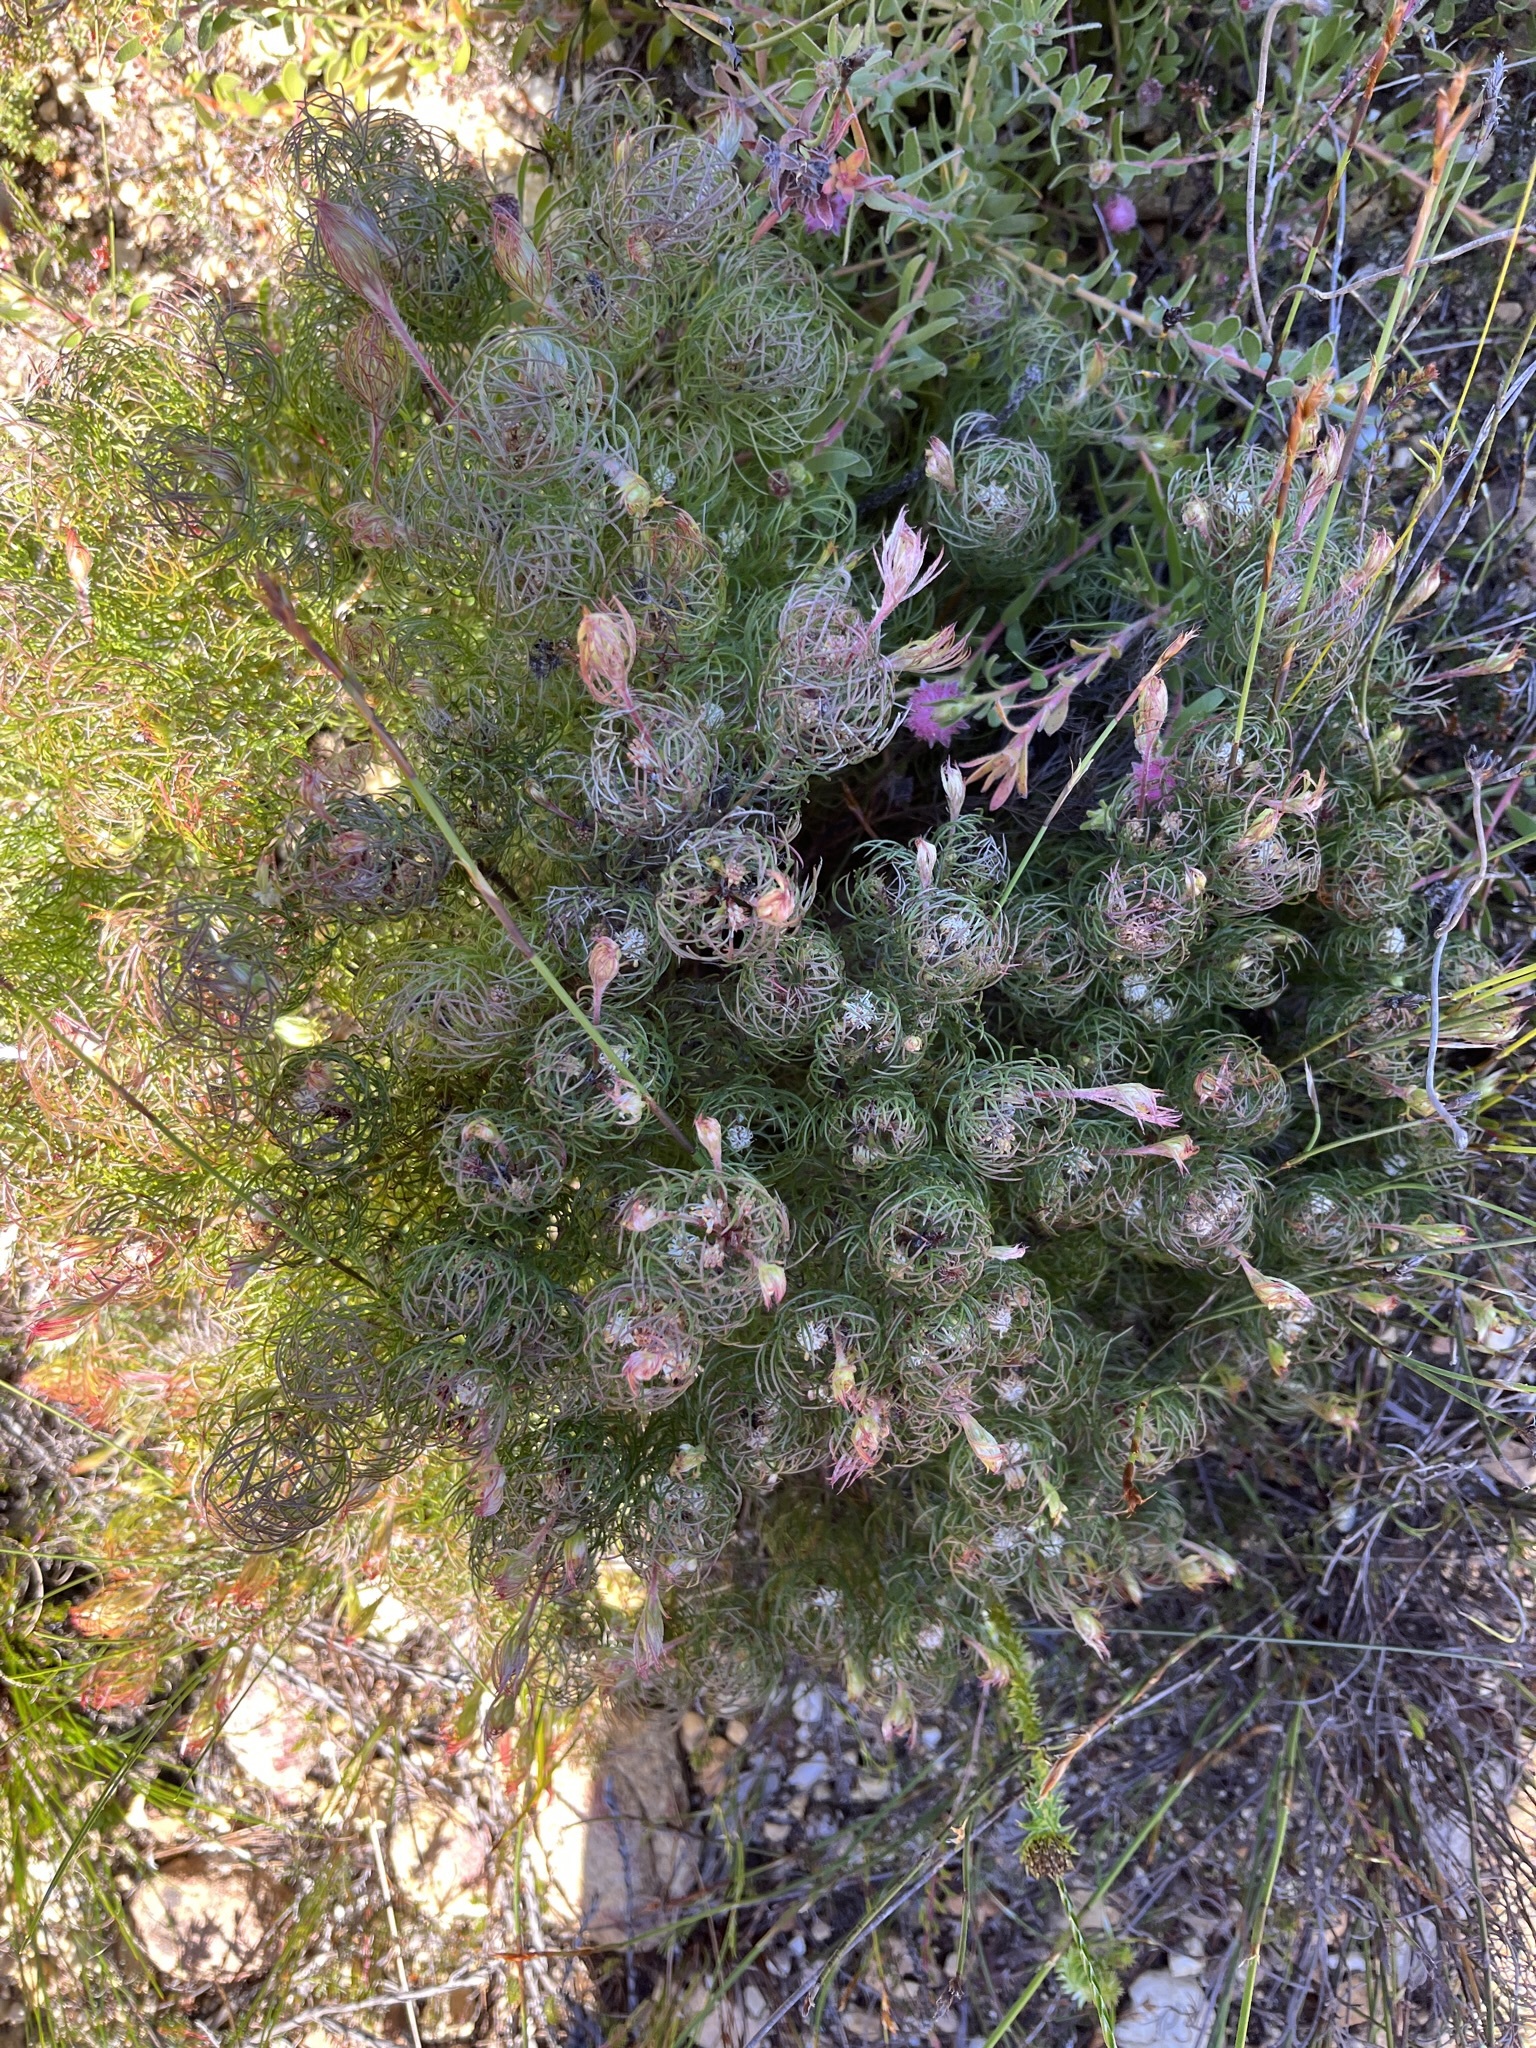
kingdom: Plantae
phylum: Tracheophyta
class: Magnoliopsida
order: Proteales
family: Proteaceae
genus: Serruria
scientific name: Serruria inconspicua
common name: Cryptic spiderhead
